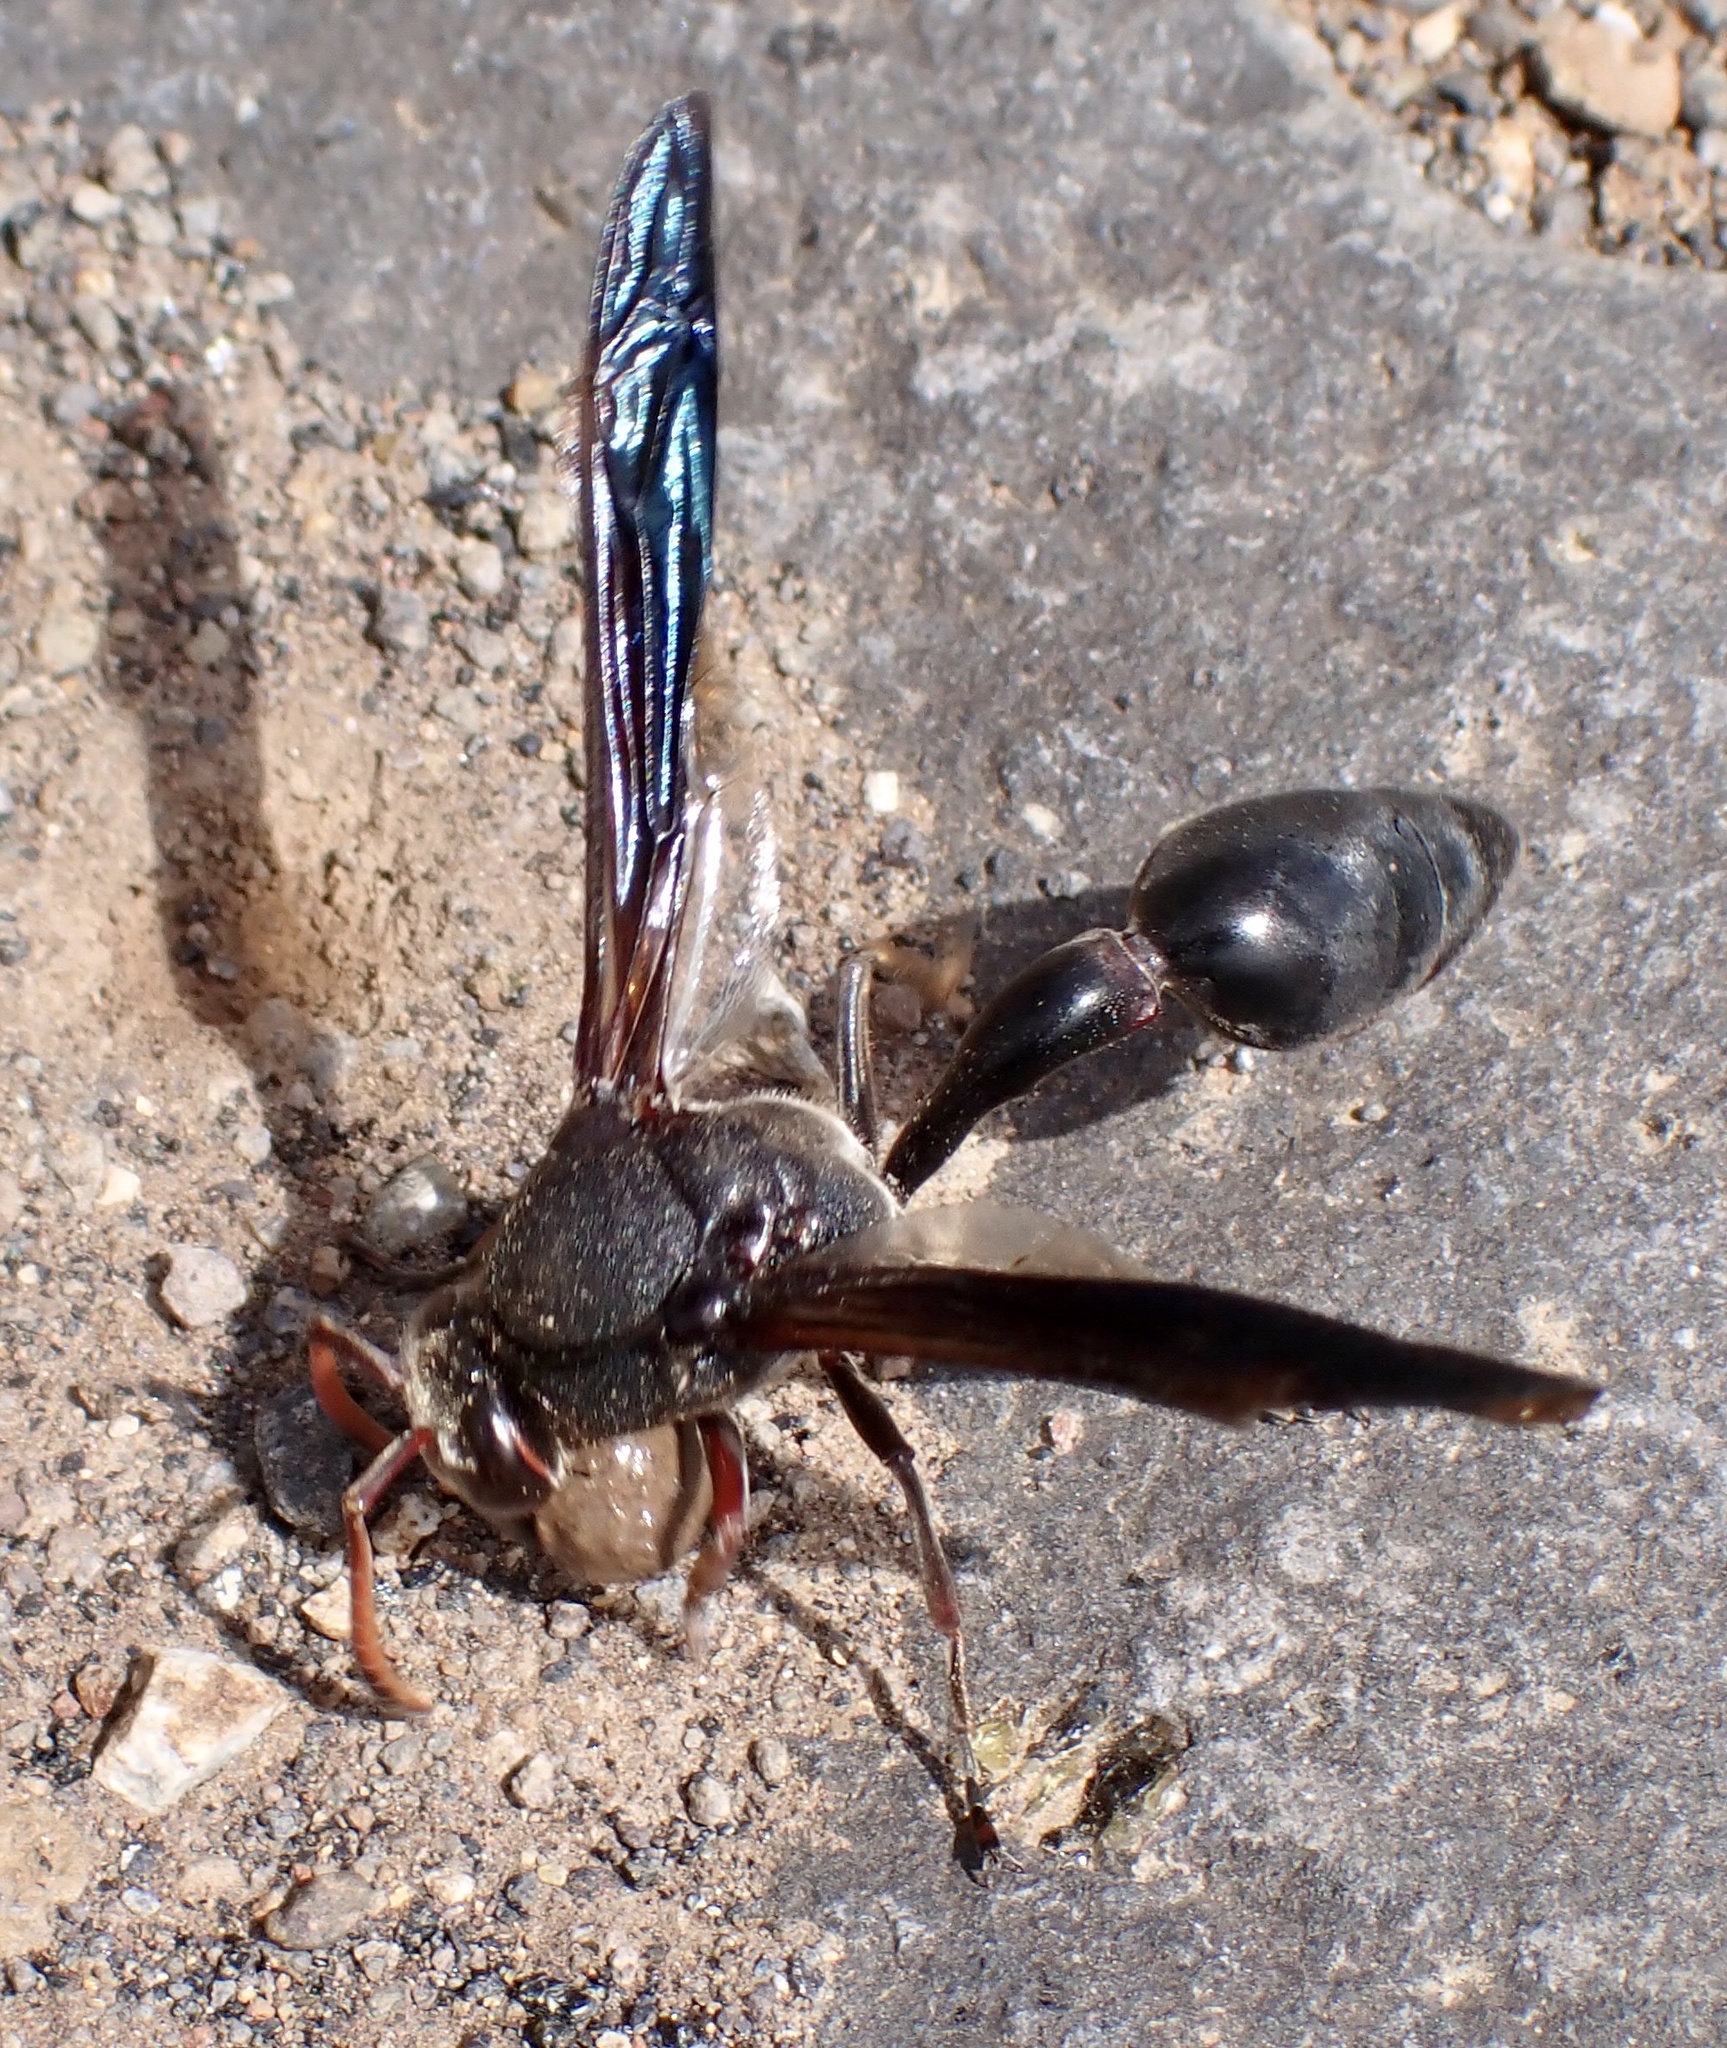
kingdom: Animalia
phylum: Arthropoda
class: Insecta
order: Hymenoptera
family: Eumenidae
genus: Delta
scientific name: Delta emarginatum
